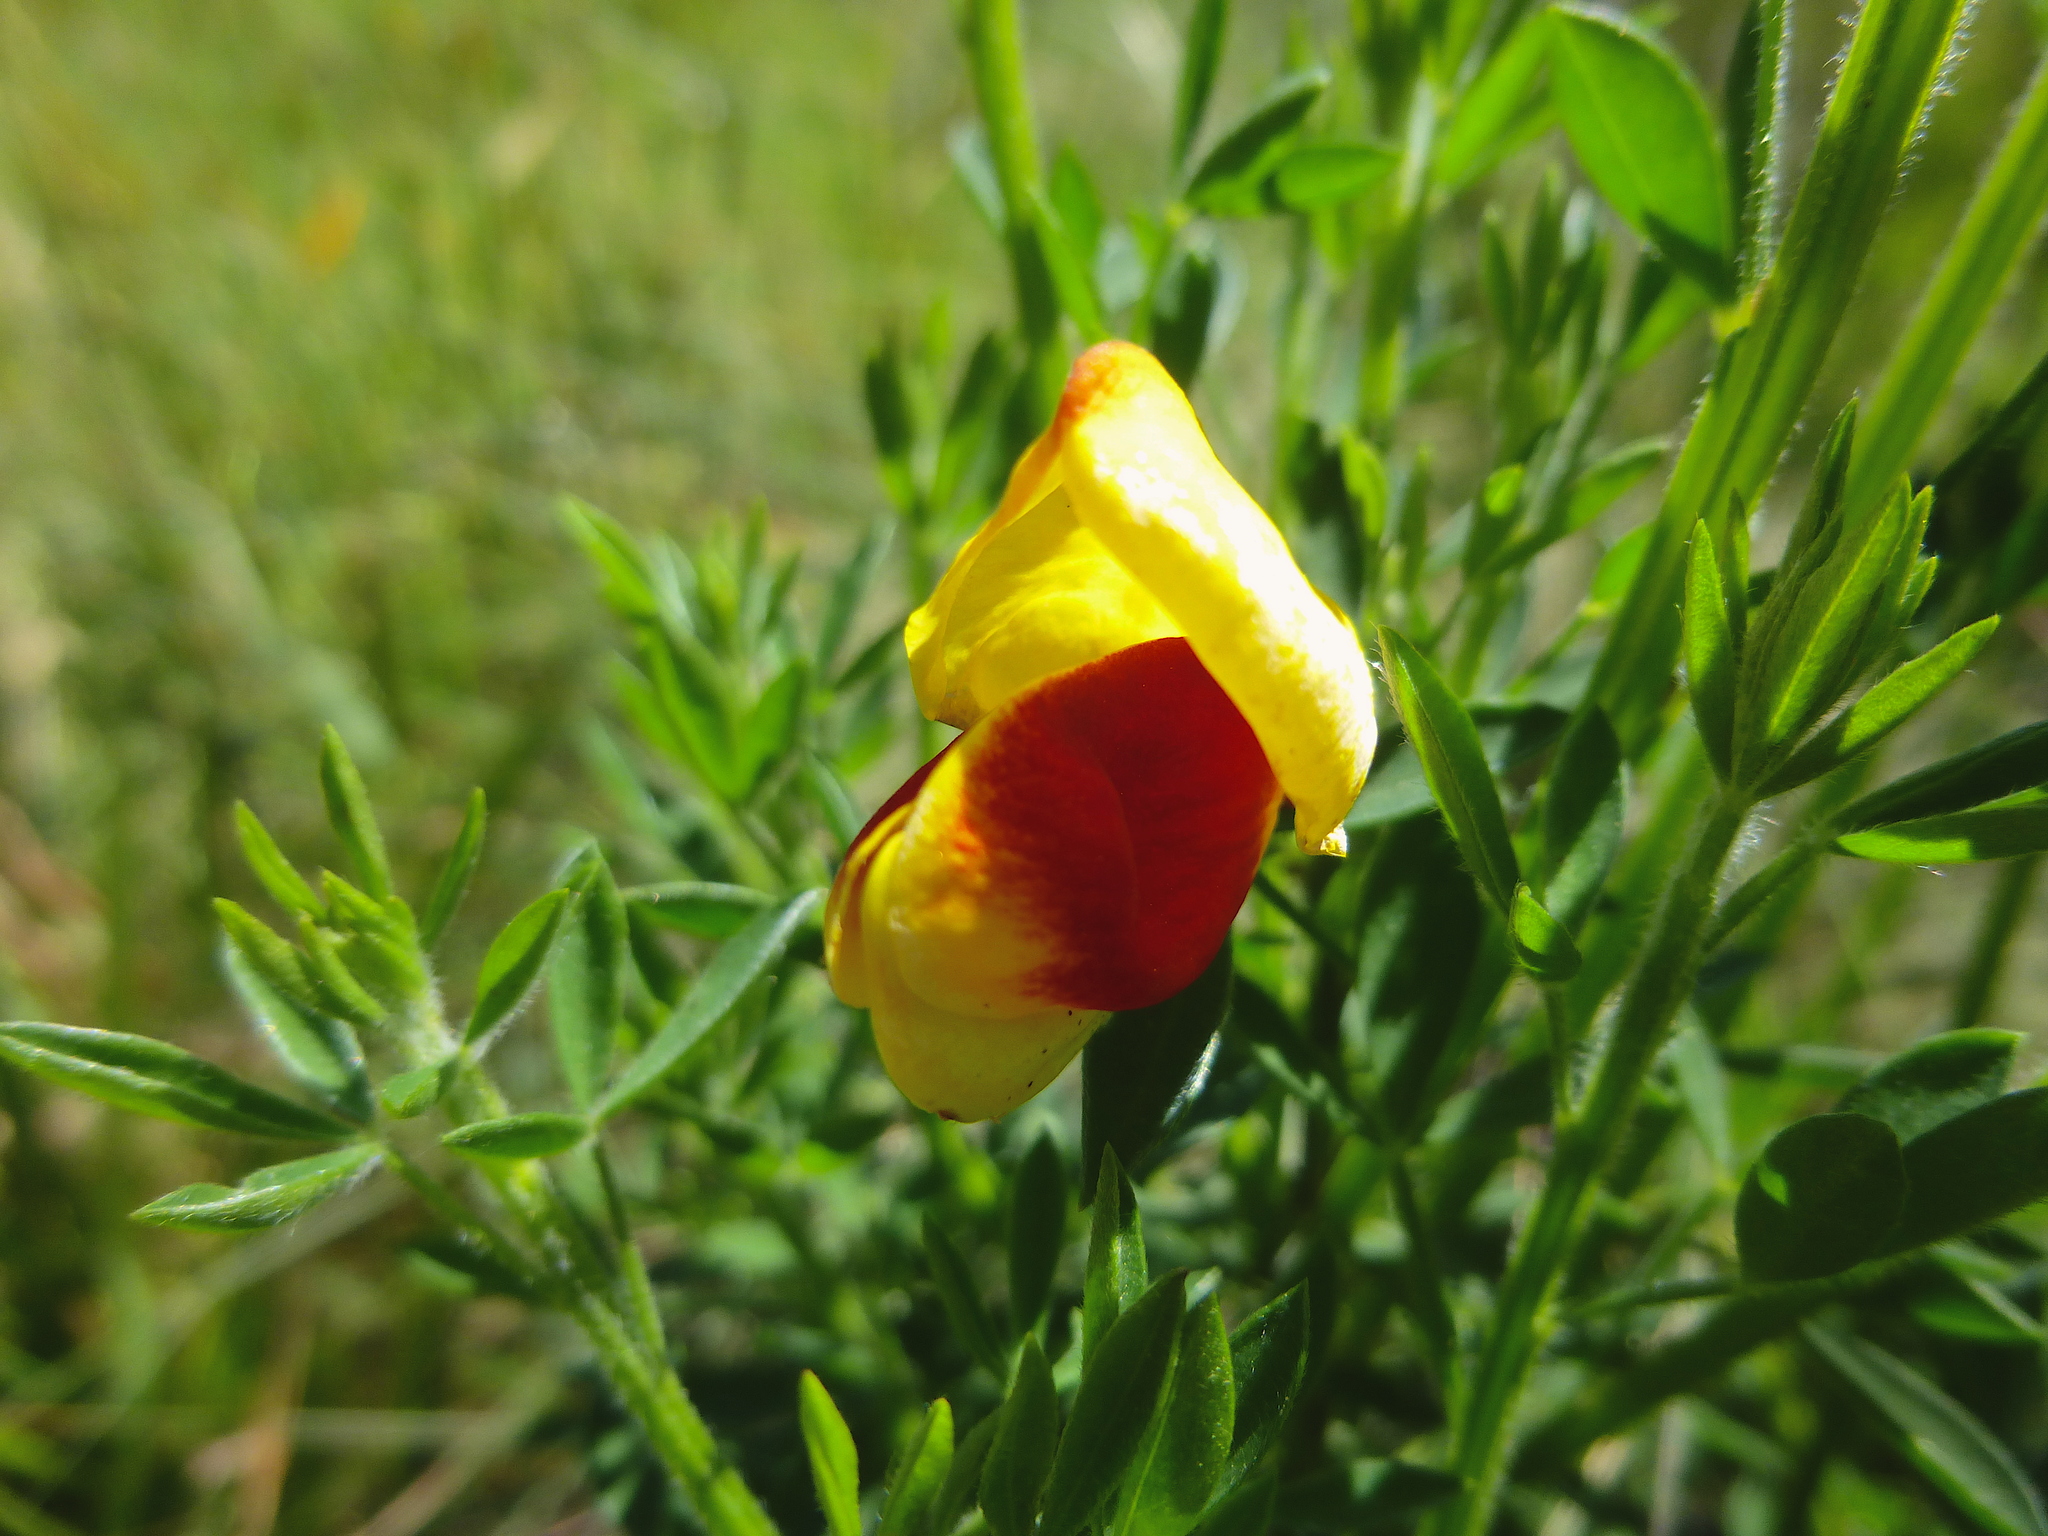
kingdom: Plantae
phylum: Tracheophyta
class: Magnoliopsida
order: Fabales
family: Fabaceae
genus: Cytisus
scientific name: Cytisus scoparius
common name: Scotch broom
